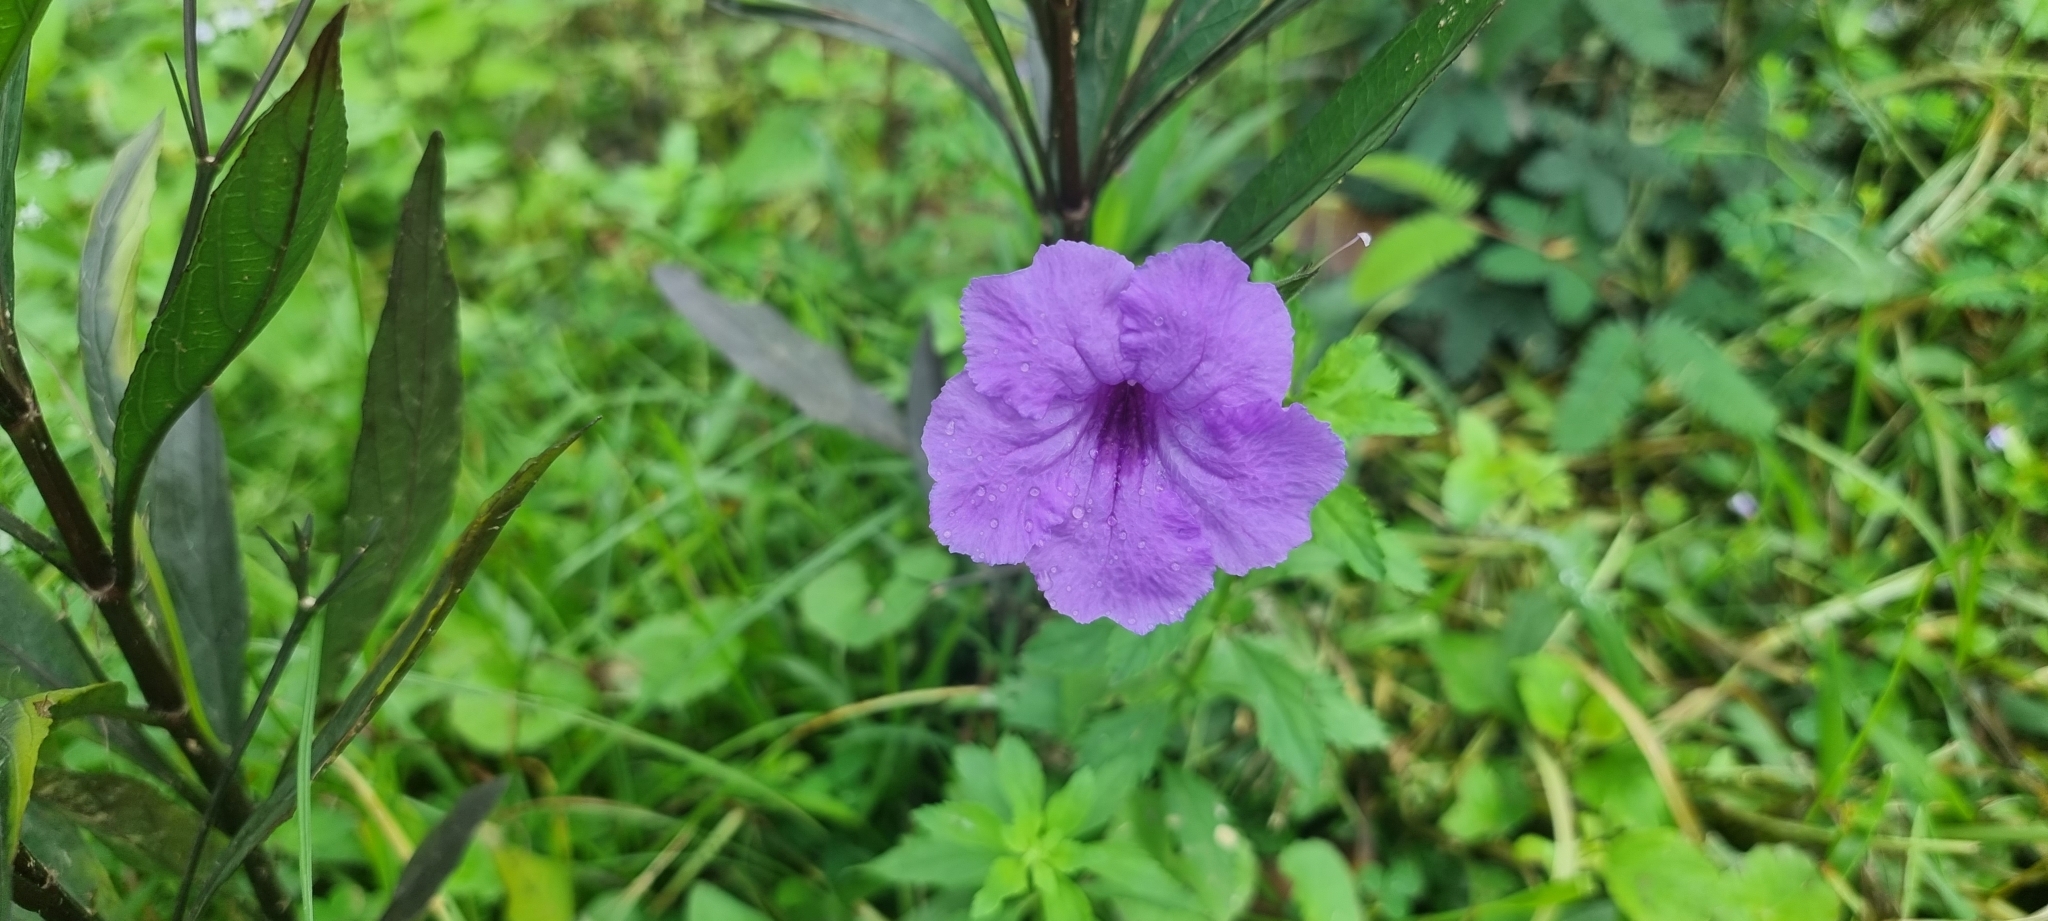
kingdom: Plantae
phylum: Tracheophyta
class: Magnoliopsida
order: Lamiales
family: Acanthaceae
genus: Ruellia
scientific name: Ruellia simplex
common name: Softseed wild petunia
